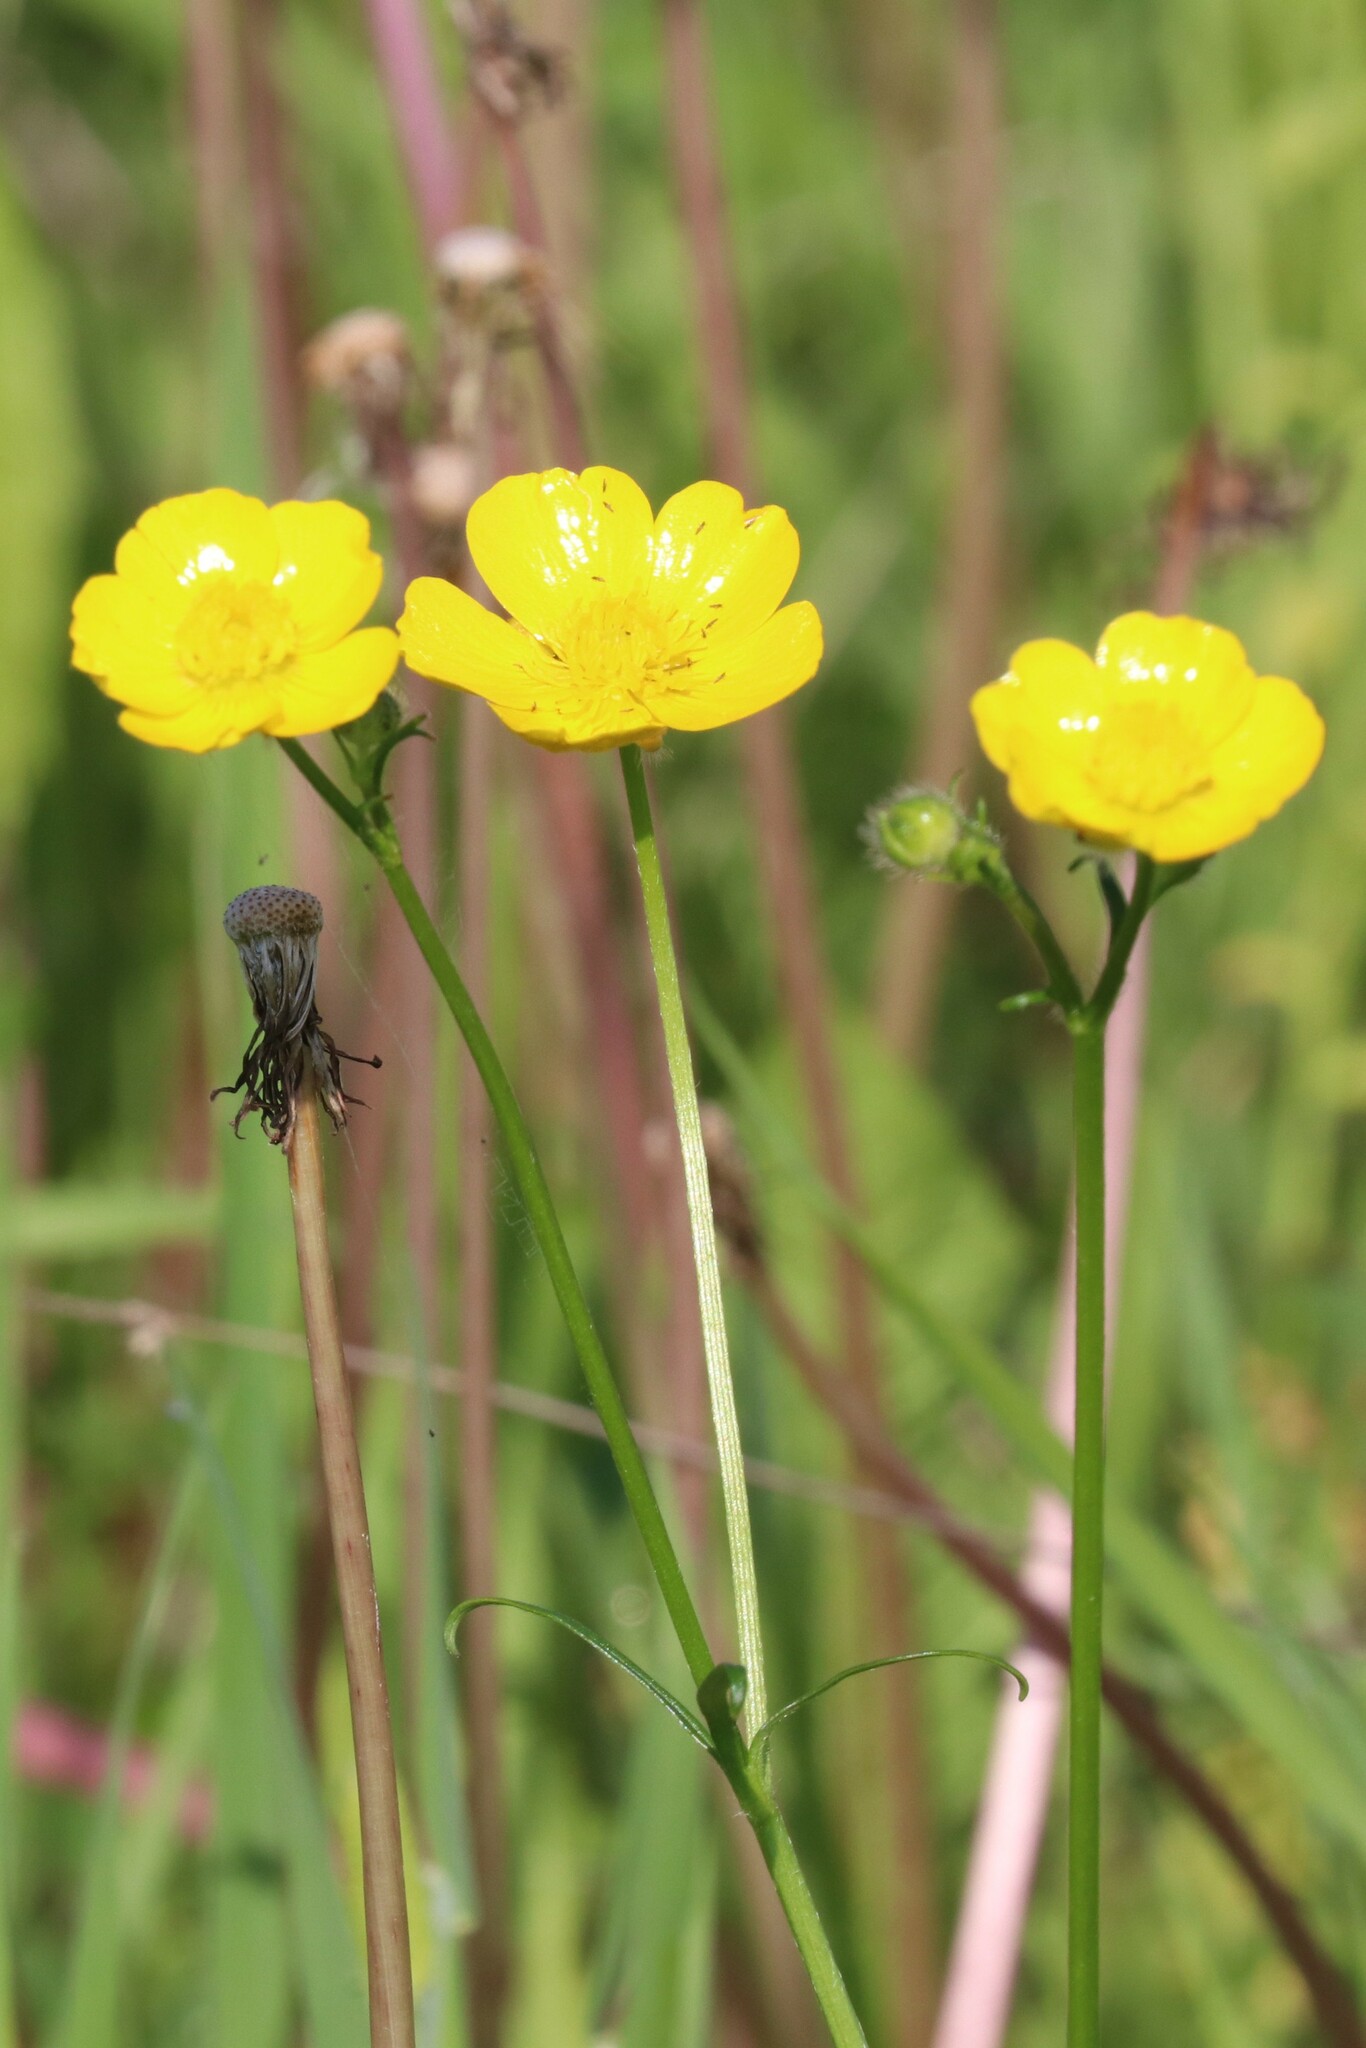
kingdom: Plantae
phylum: Tracheophyta
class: Magnoliopsida
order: Ranunculales
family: Ranunculaceae
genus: Ranunculus
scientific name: Ranunculus polyanthemos
